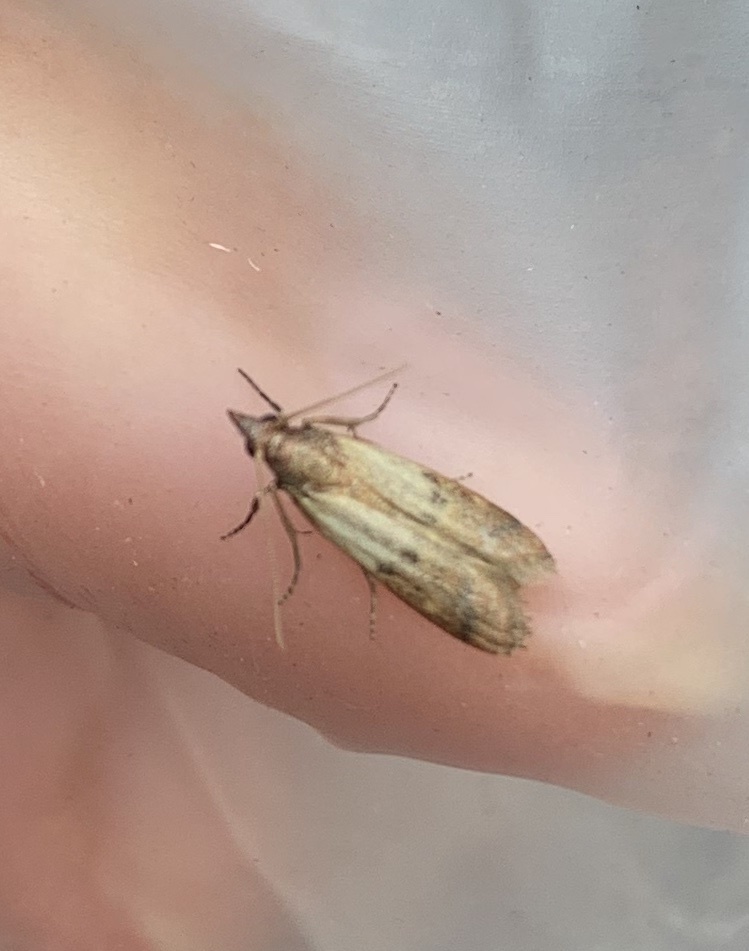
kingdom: Animalia
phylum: Arthropoda
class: Insecta
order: Lepidoptera
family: Pyralidae
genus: Plodia
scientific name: Plodia interpunctella
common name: Indian meal moth
